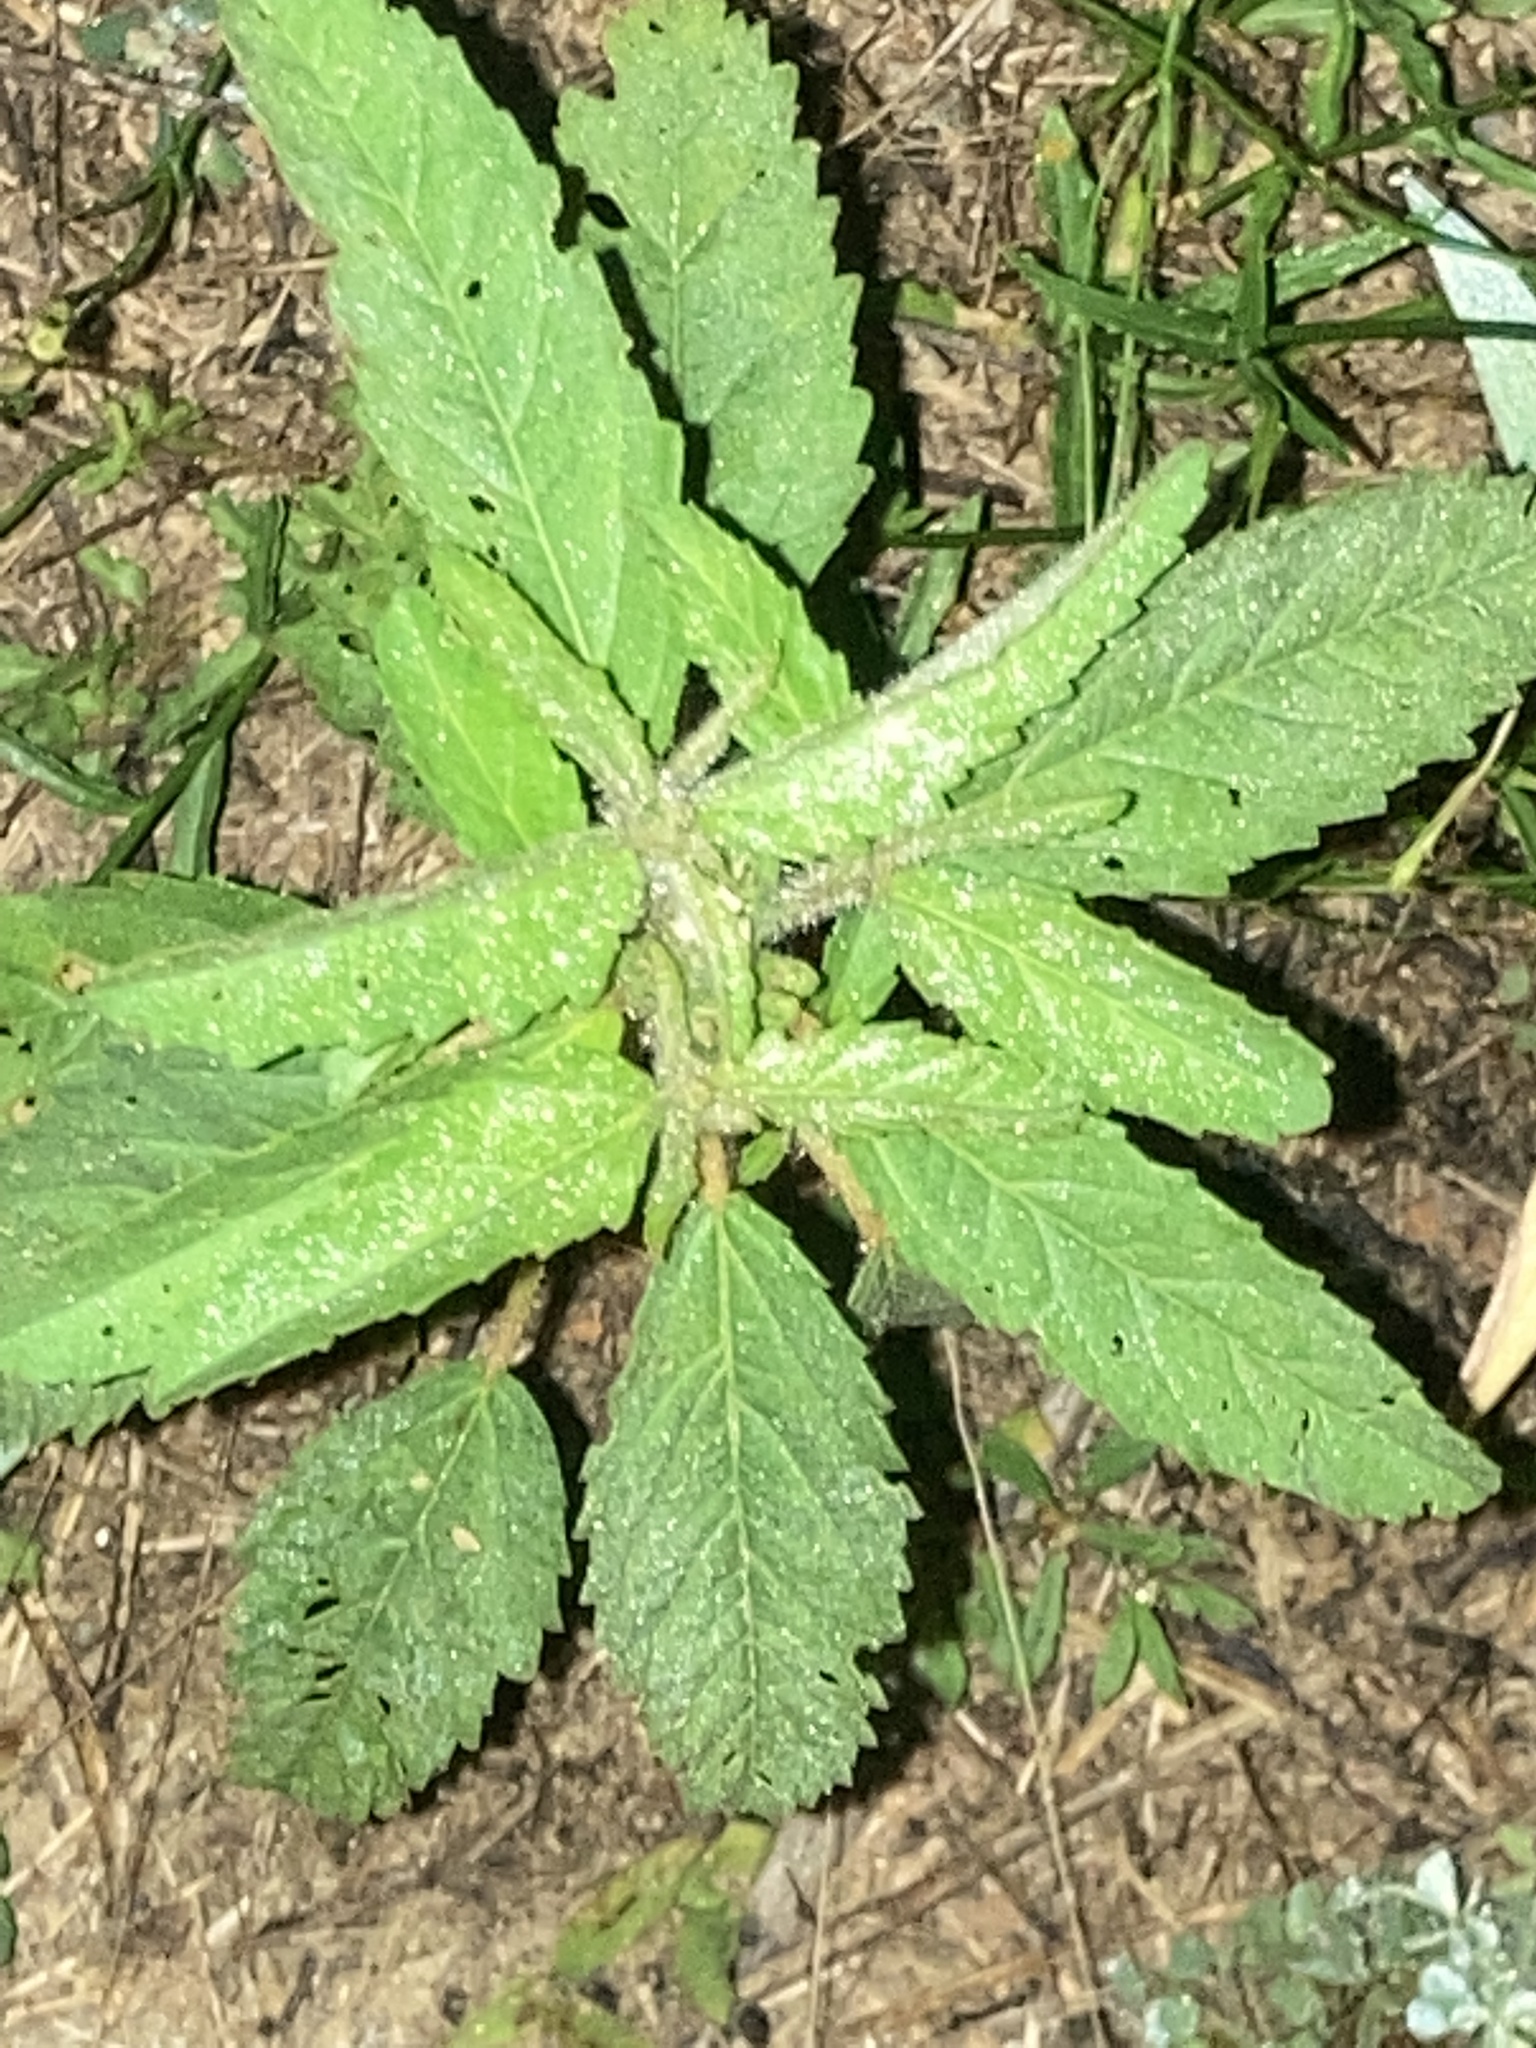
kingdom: Plantae
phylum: Tracheophyta
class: Magnoliopsida
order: Malpighiales
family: Euphorbiaceae
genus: Croton
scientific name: Croton glandulosus
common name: Tropic croton
